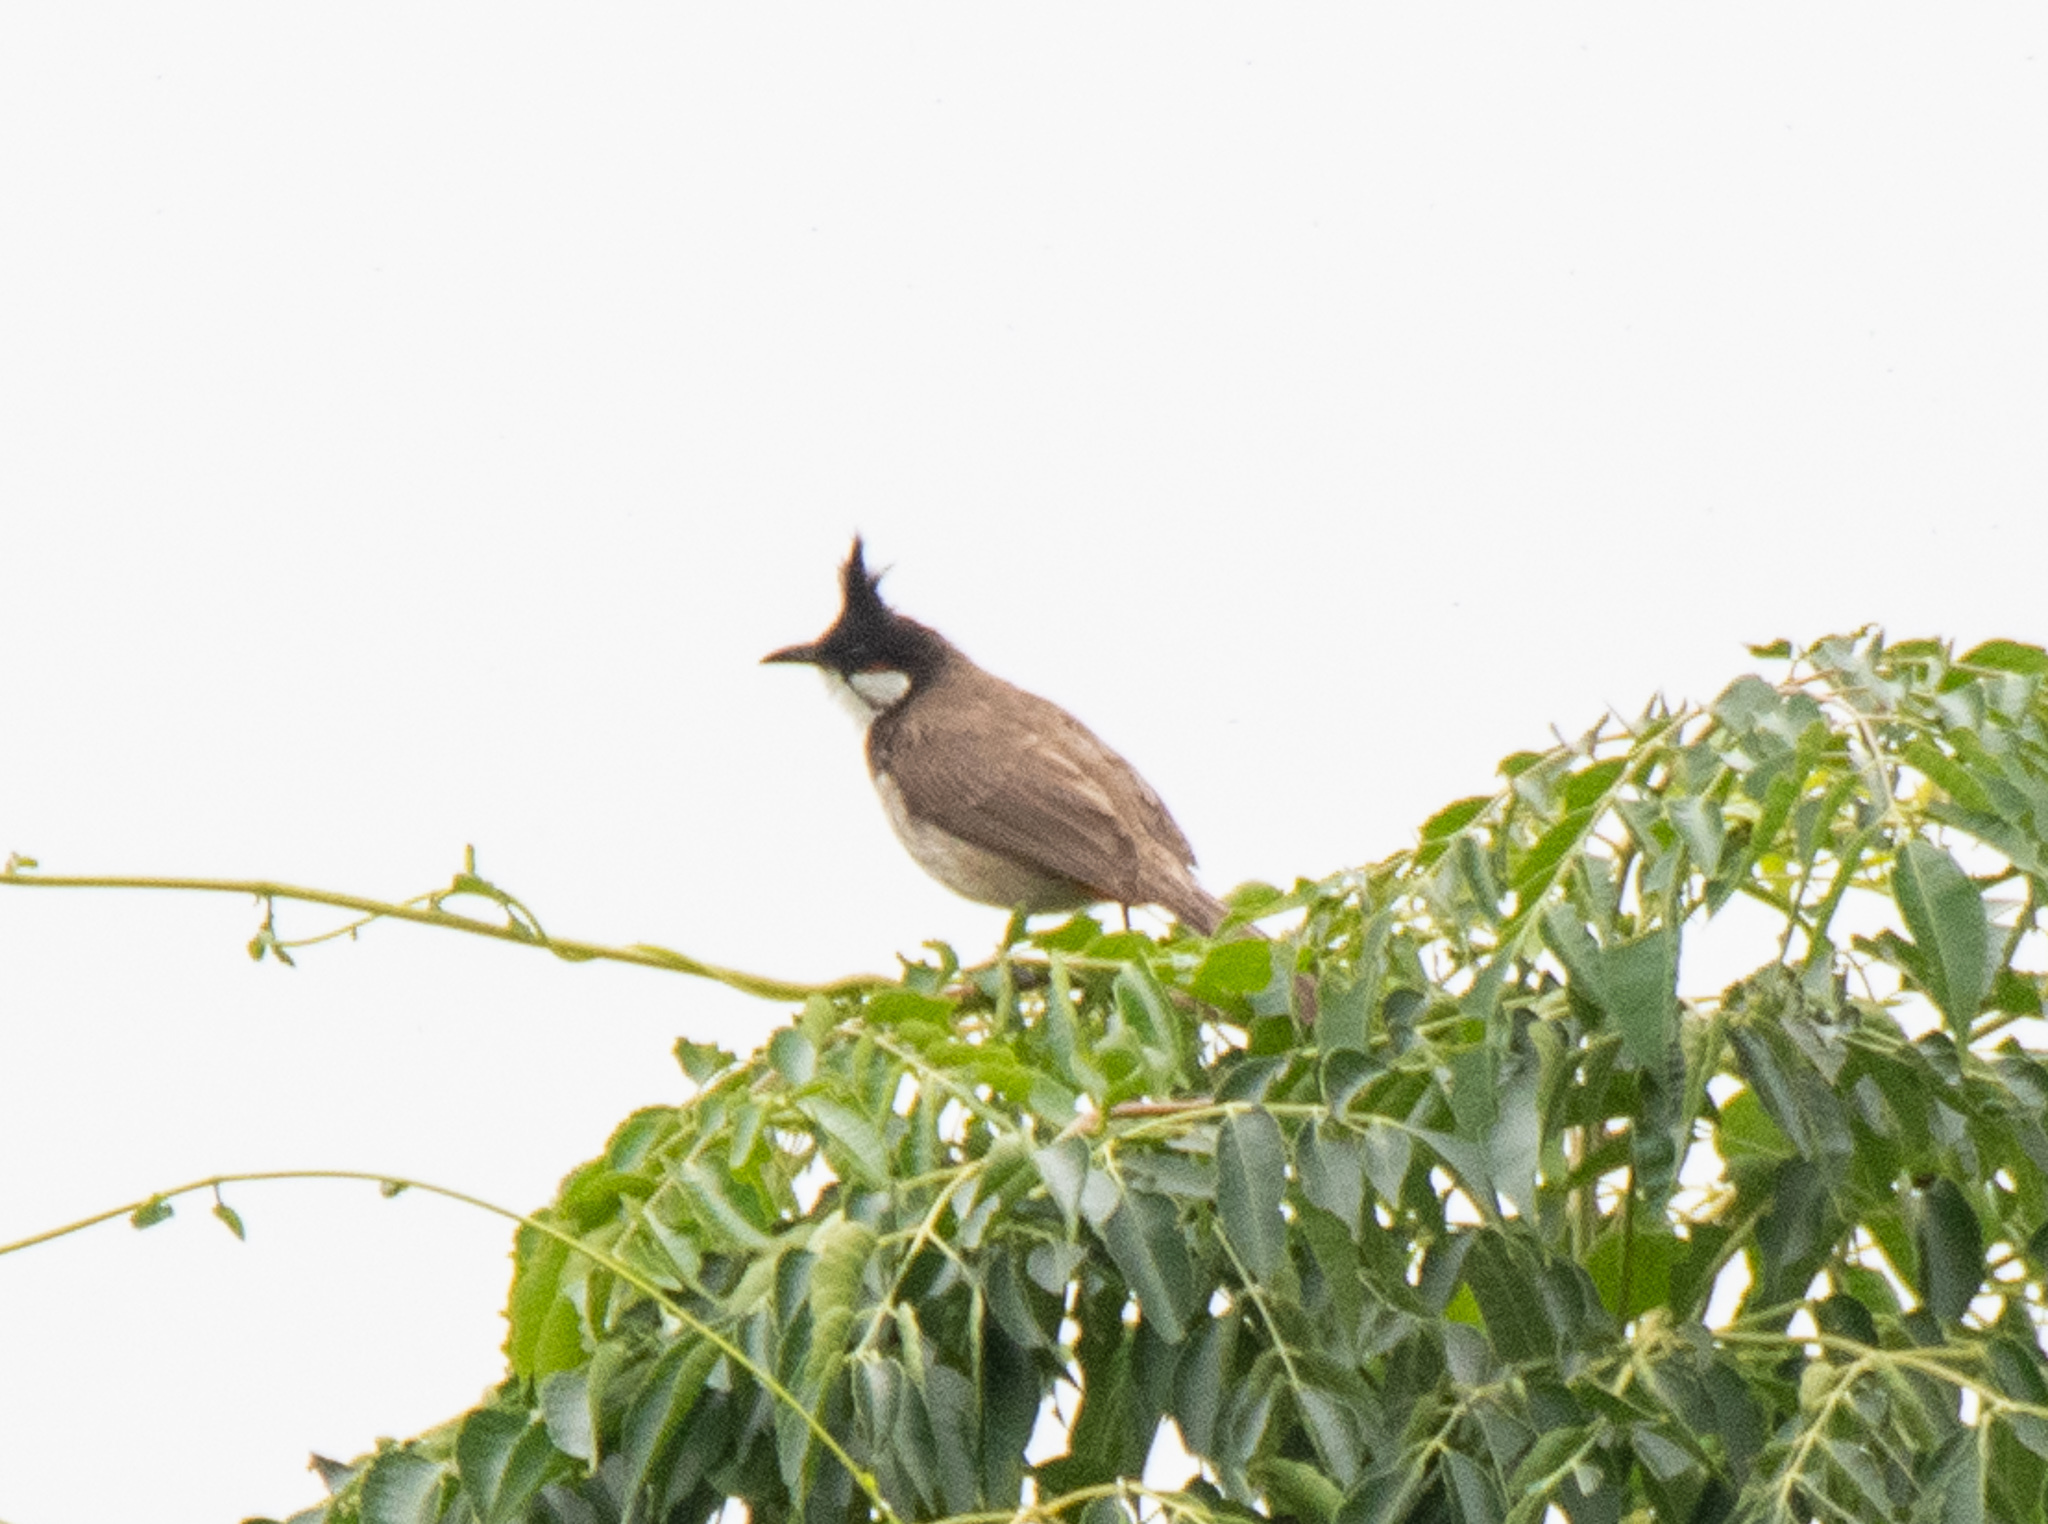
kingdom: Animalia
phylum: Chordata
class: Aves
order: Passeriformes
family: Pycnonotidae
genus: Pycnonotus
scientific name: Pycnonotus jocosus
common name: Red-whiskered bulbul
